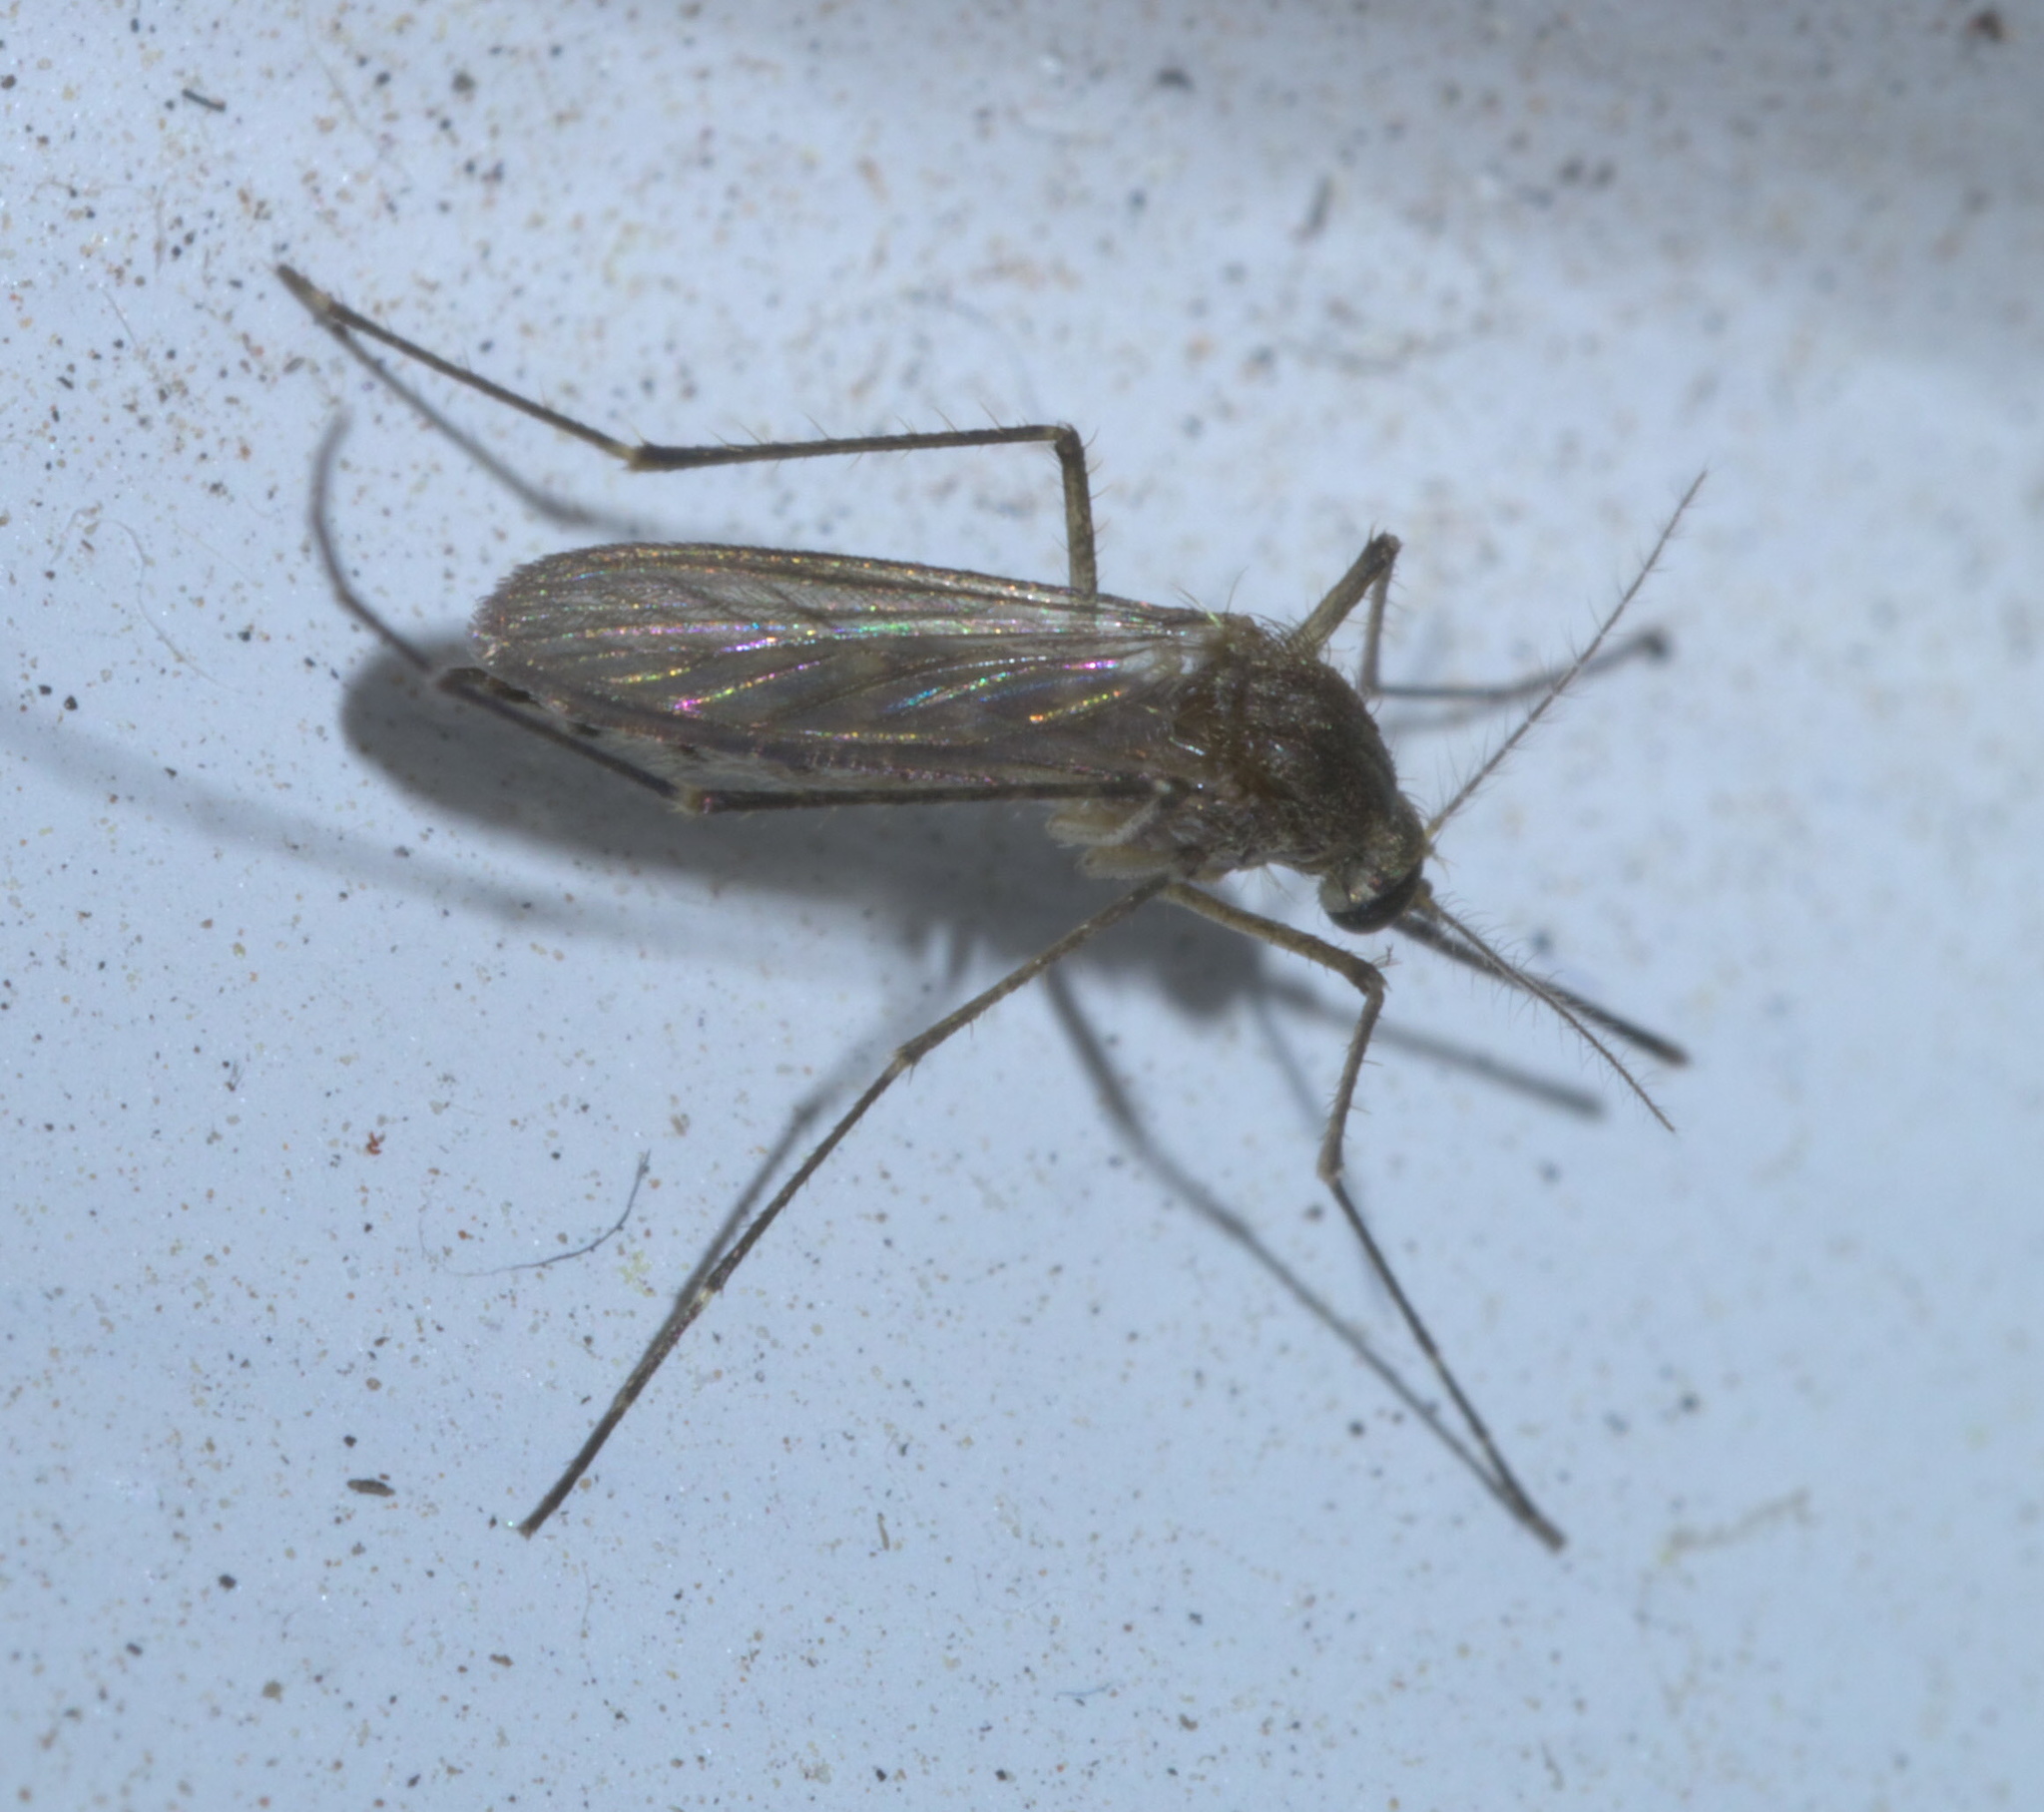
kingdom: Animalia
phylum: Arthropoda
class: Insecta
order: Diptera
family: Culicidae
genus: Aedes
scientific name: Aedes vexans
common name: Inland floodwater mosquito
